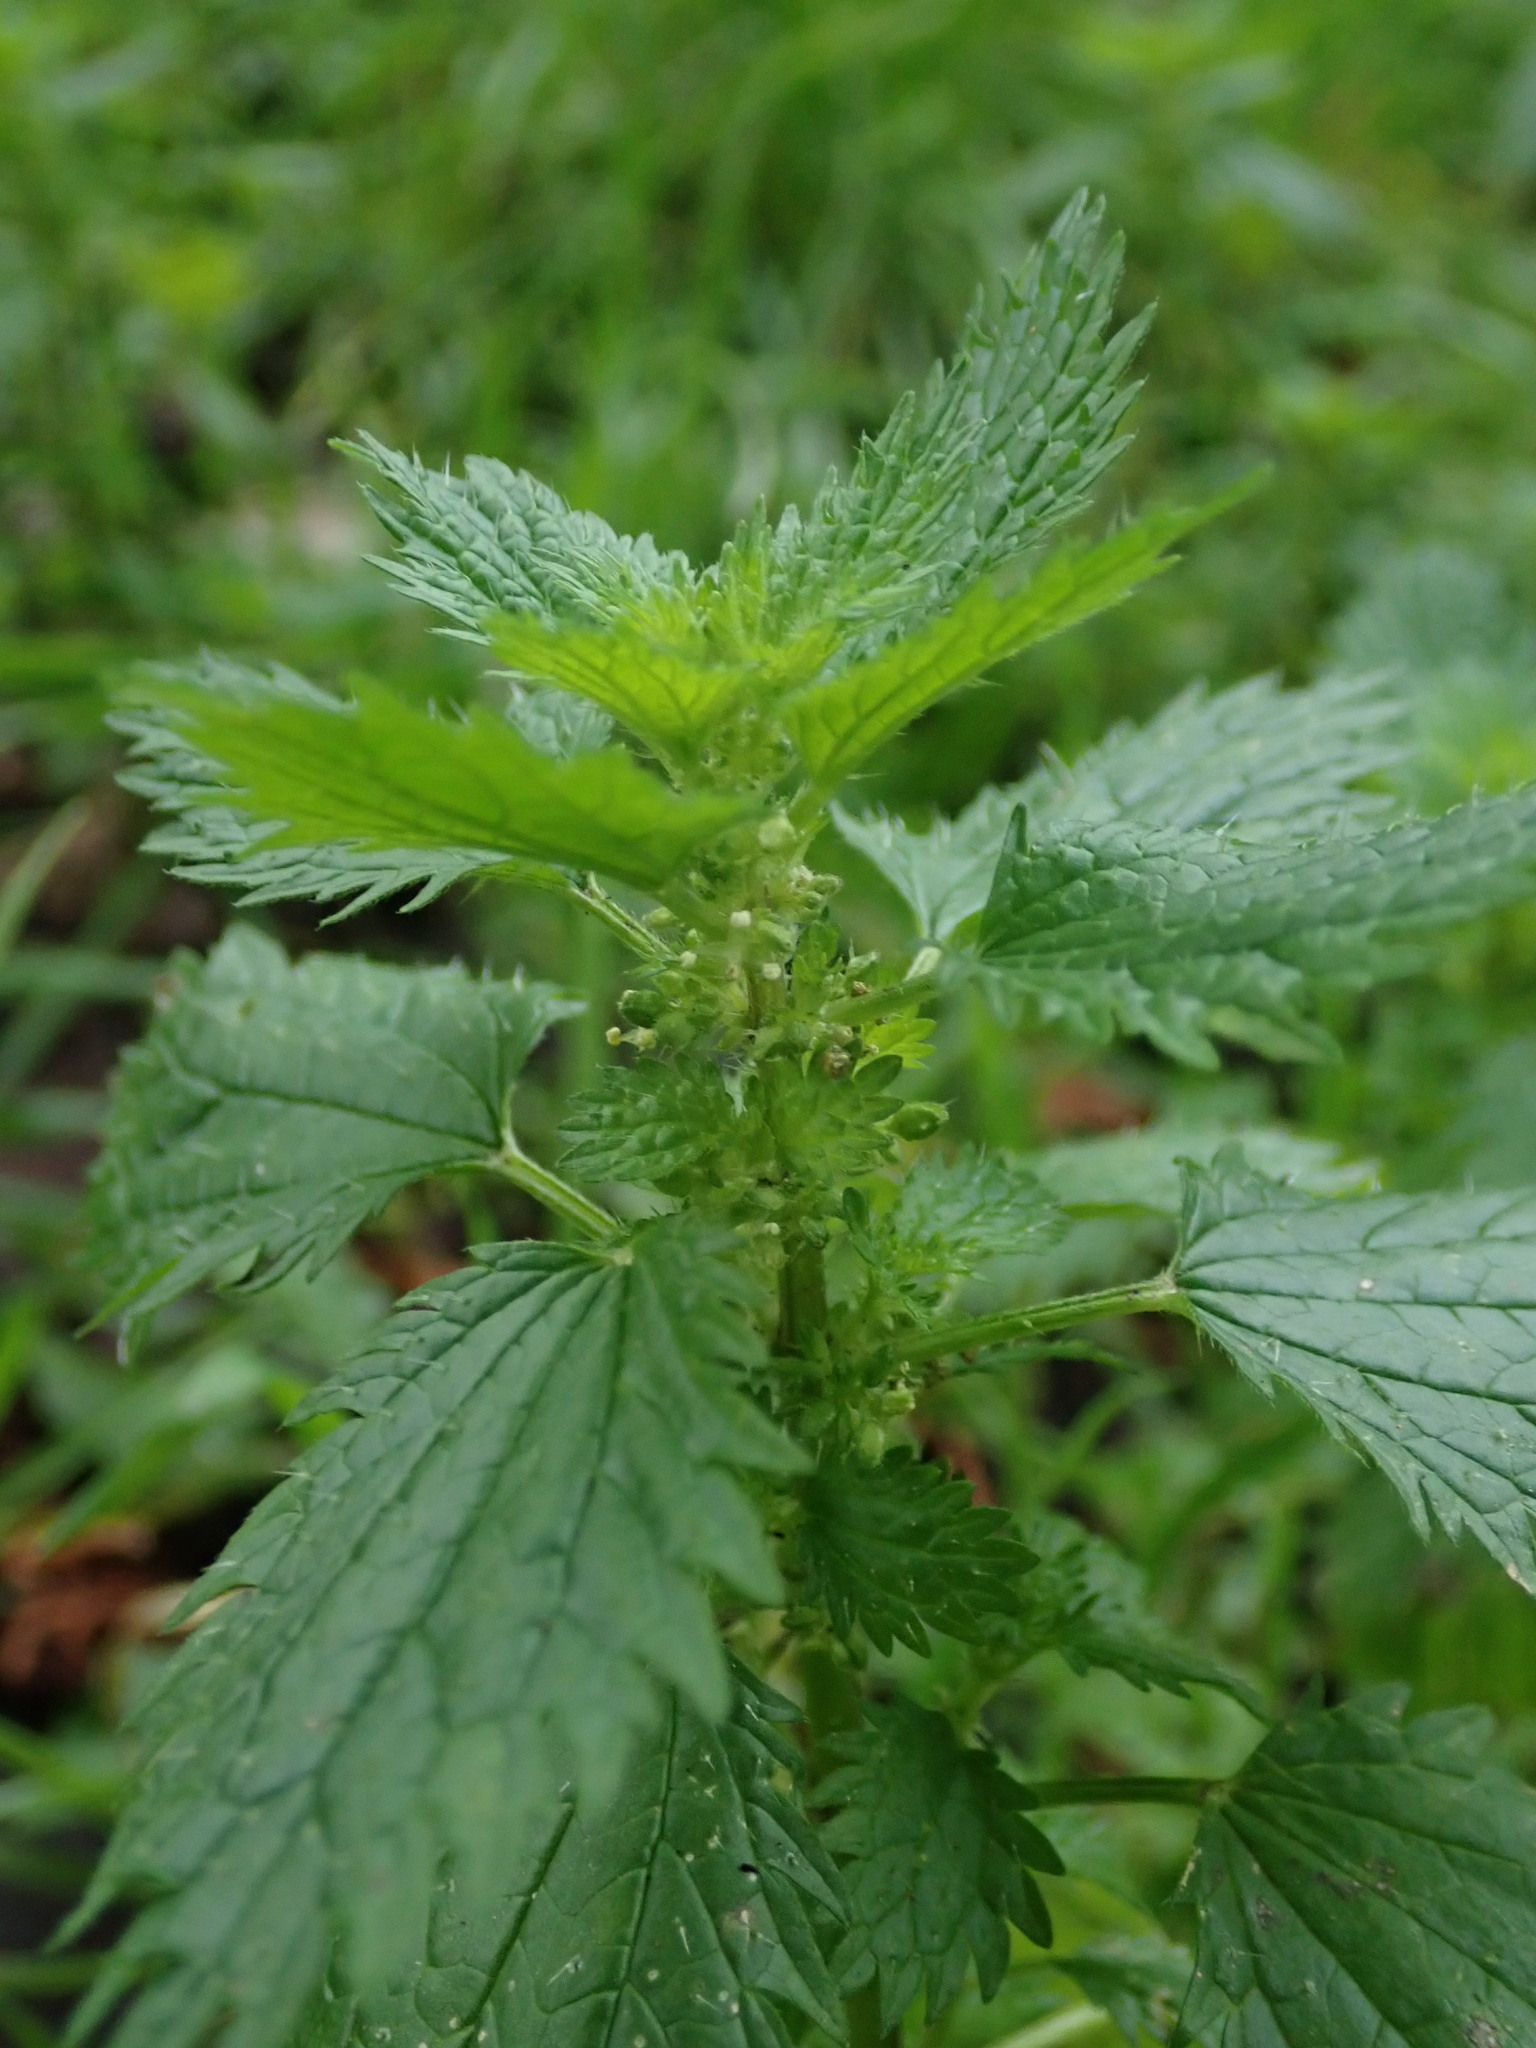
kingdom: Plantae
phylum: Tracheophyta
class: Magnoliopsida
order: Rosales
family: Urticaceae
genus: Urtica
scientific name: Urtica urens
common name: Dwarf nettle
